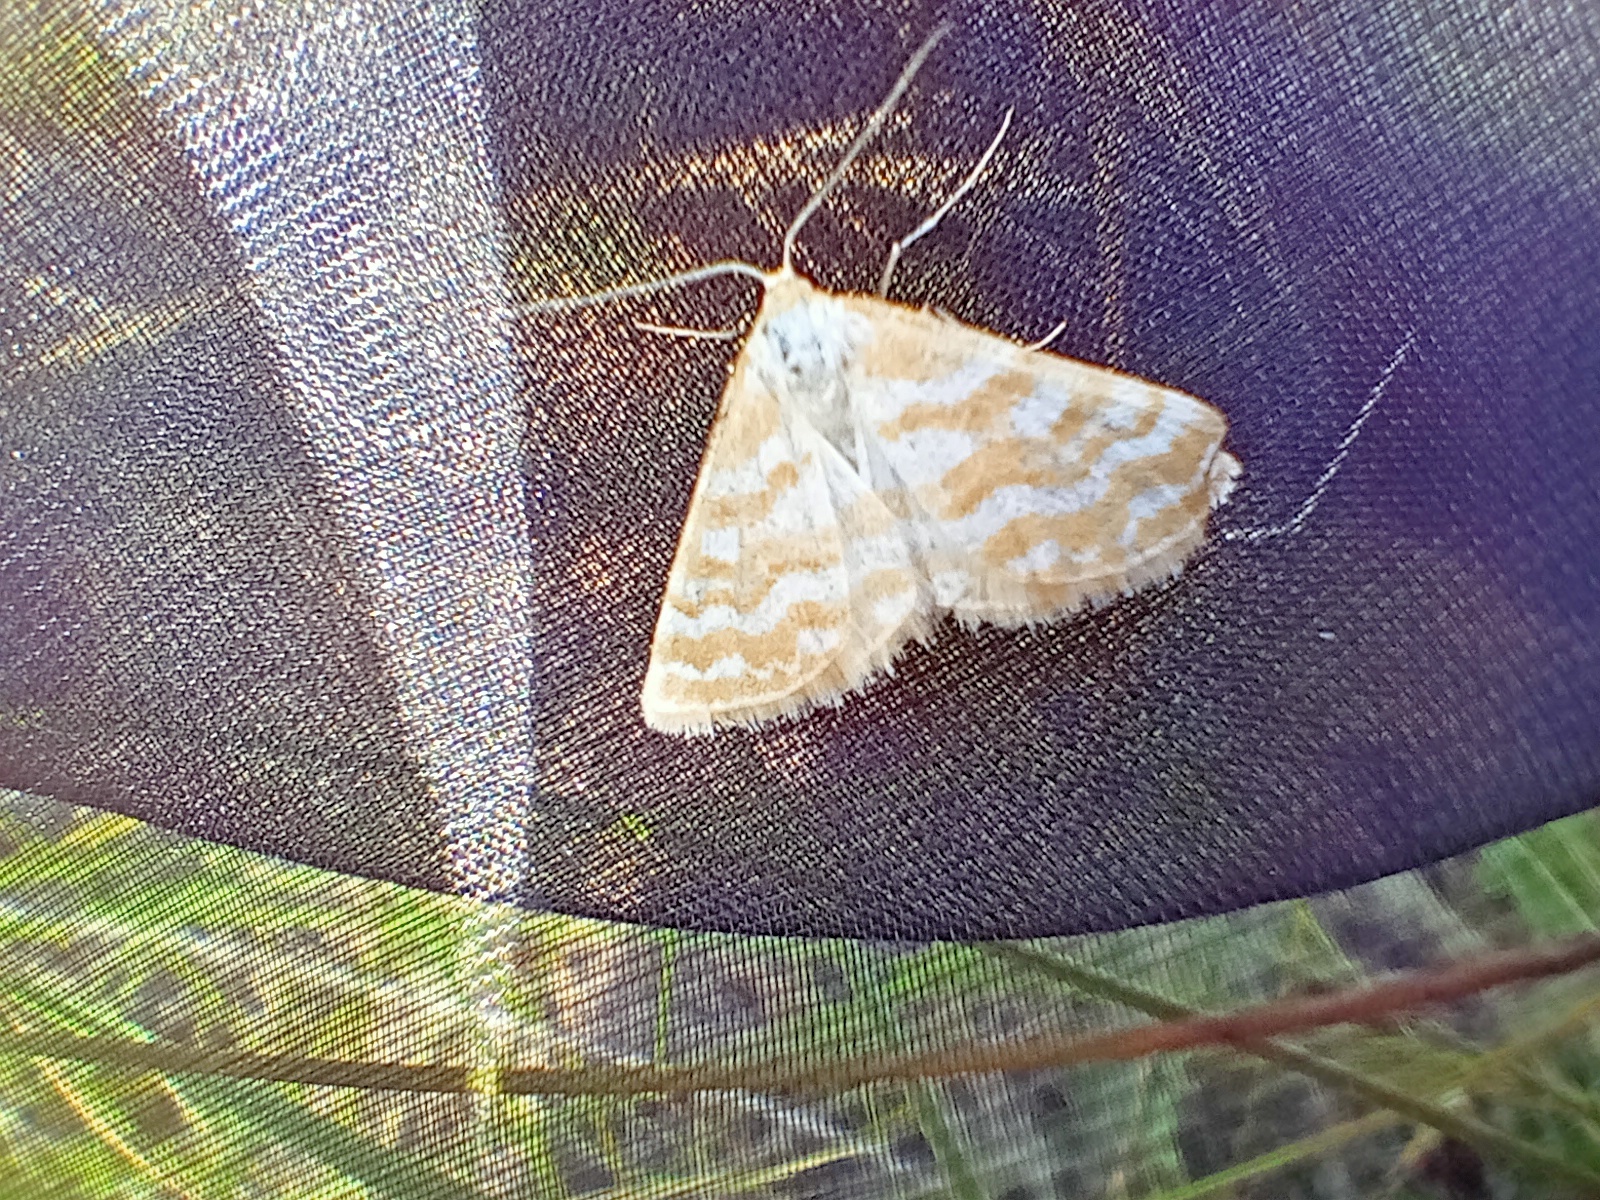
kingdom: Animalia
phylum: Arthropoda
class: Insecta
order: Lepidoptera
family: Geometridae
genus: Idaea
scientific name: Idaea sericeata
